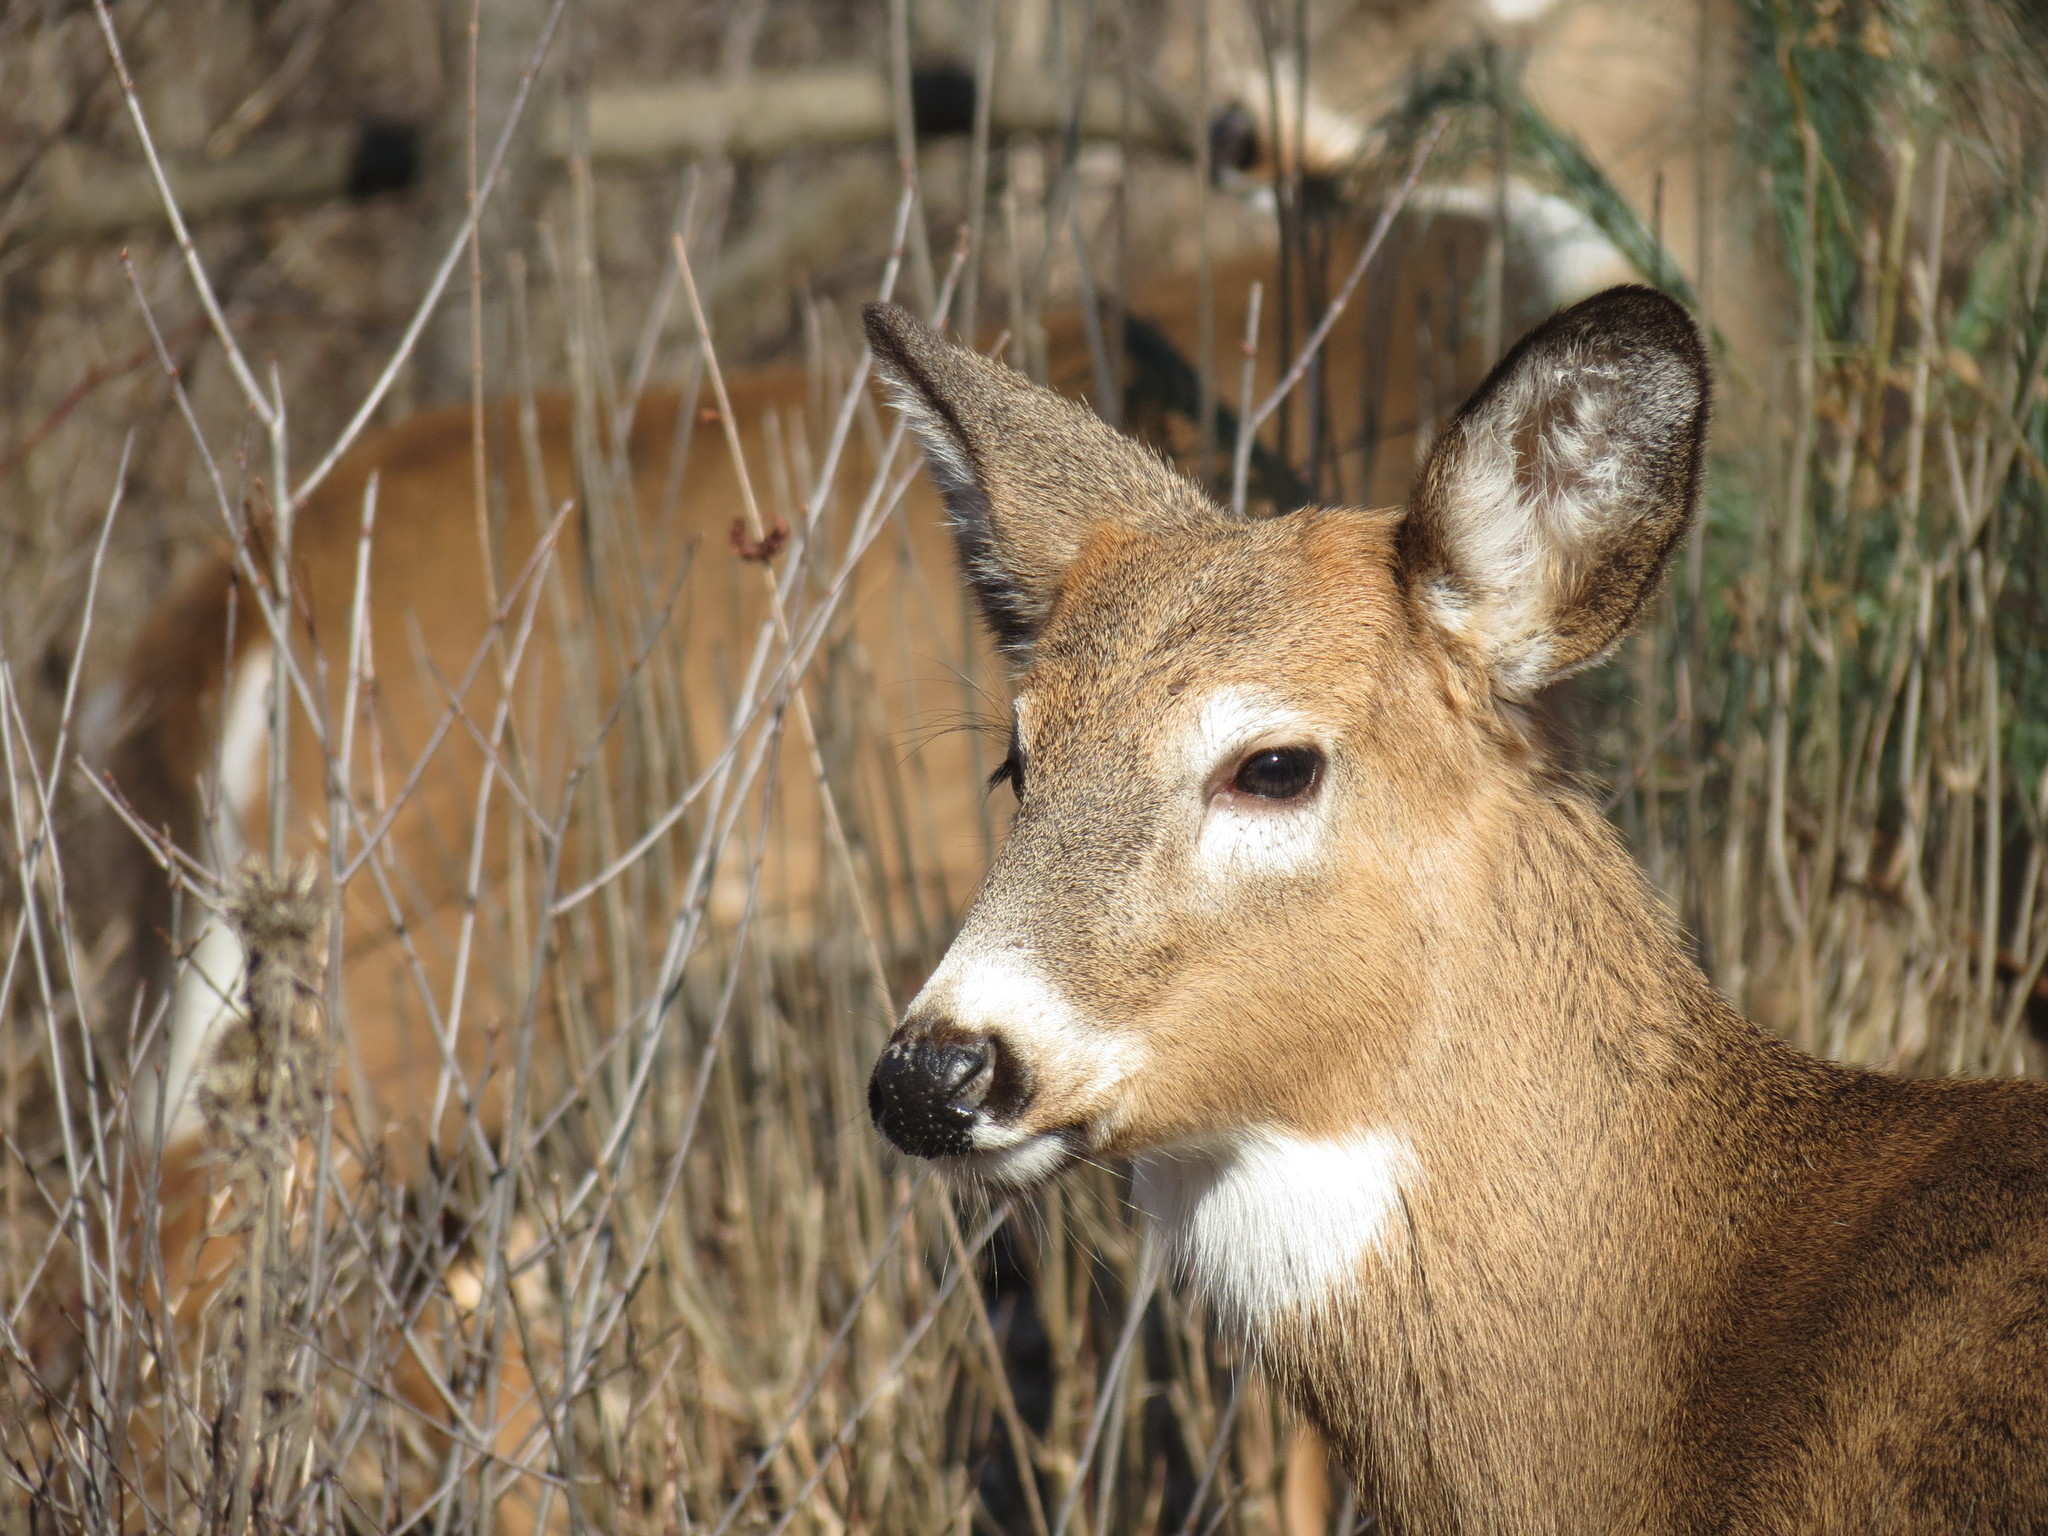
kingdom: Animalia
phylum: Chordata
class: Mammalia
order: Artiodactyla
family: Cervidae
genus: Odocoileus
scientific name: Odocoileus virginianus
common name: White-tailed deer
